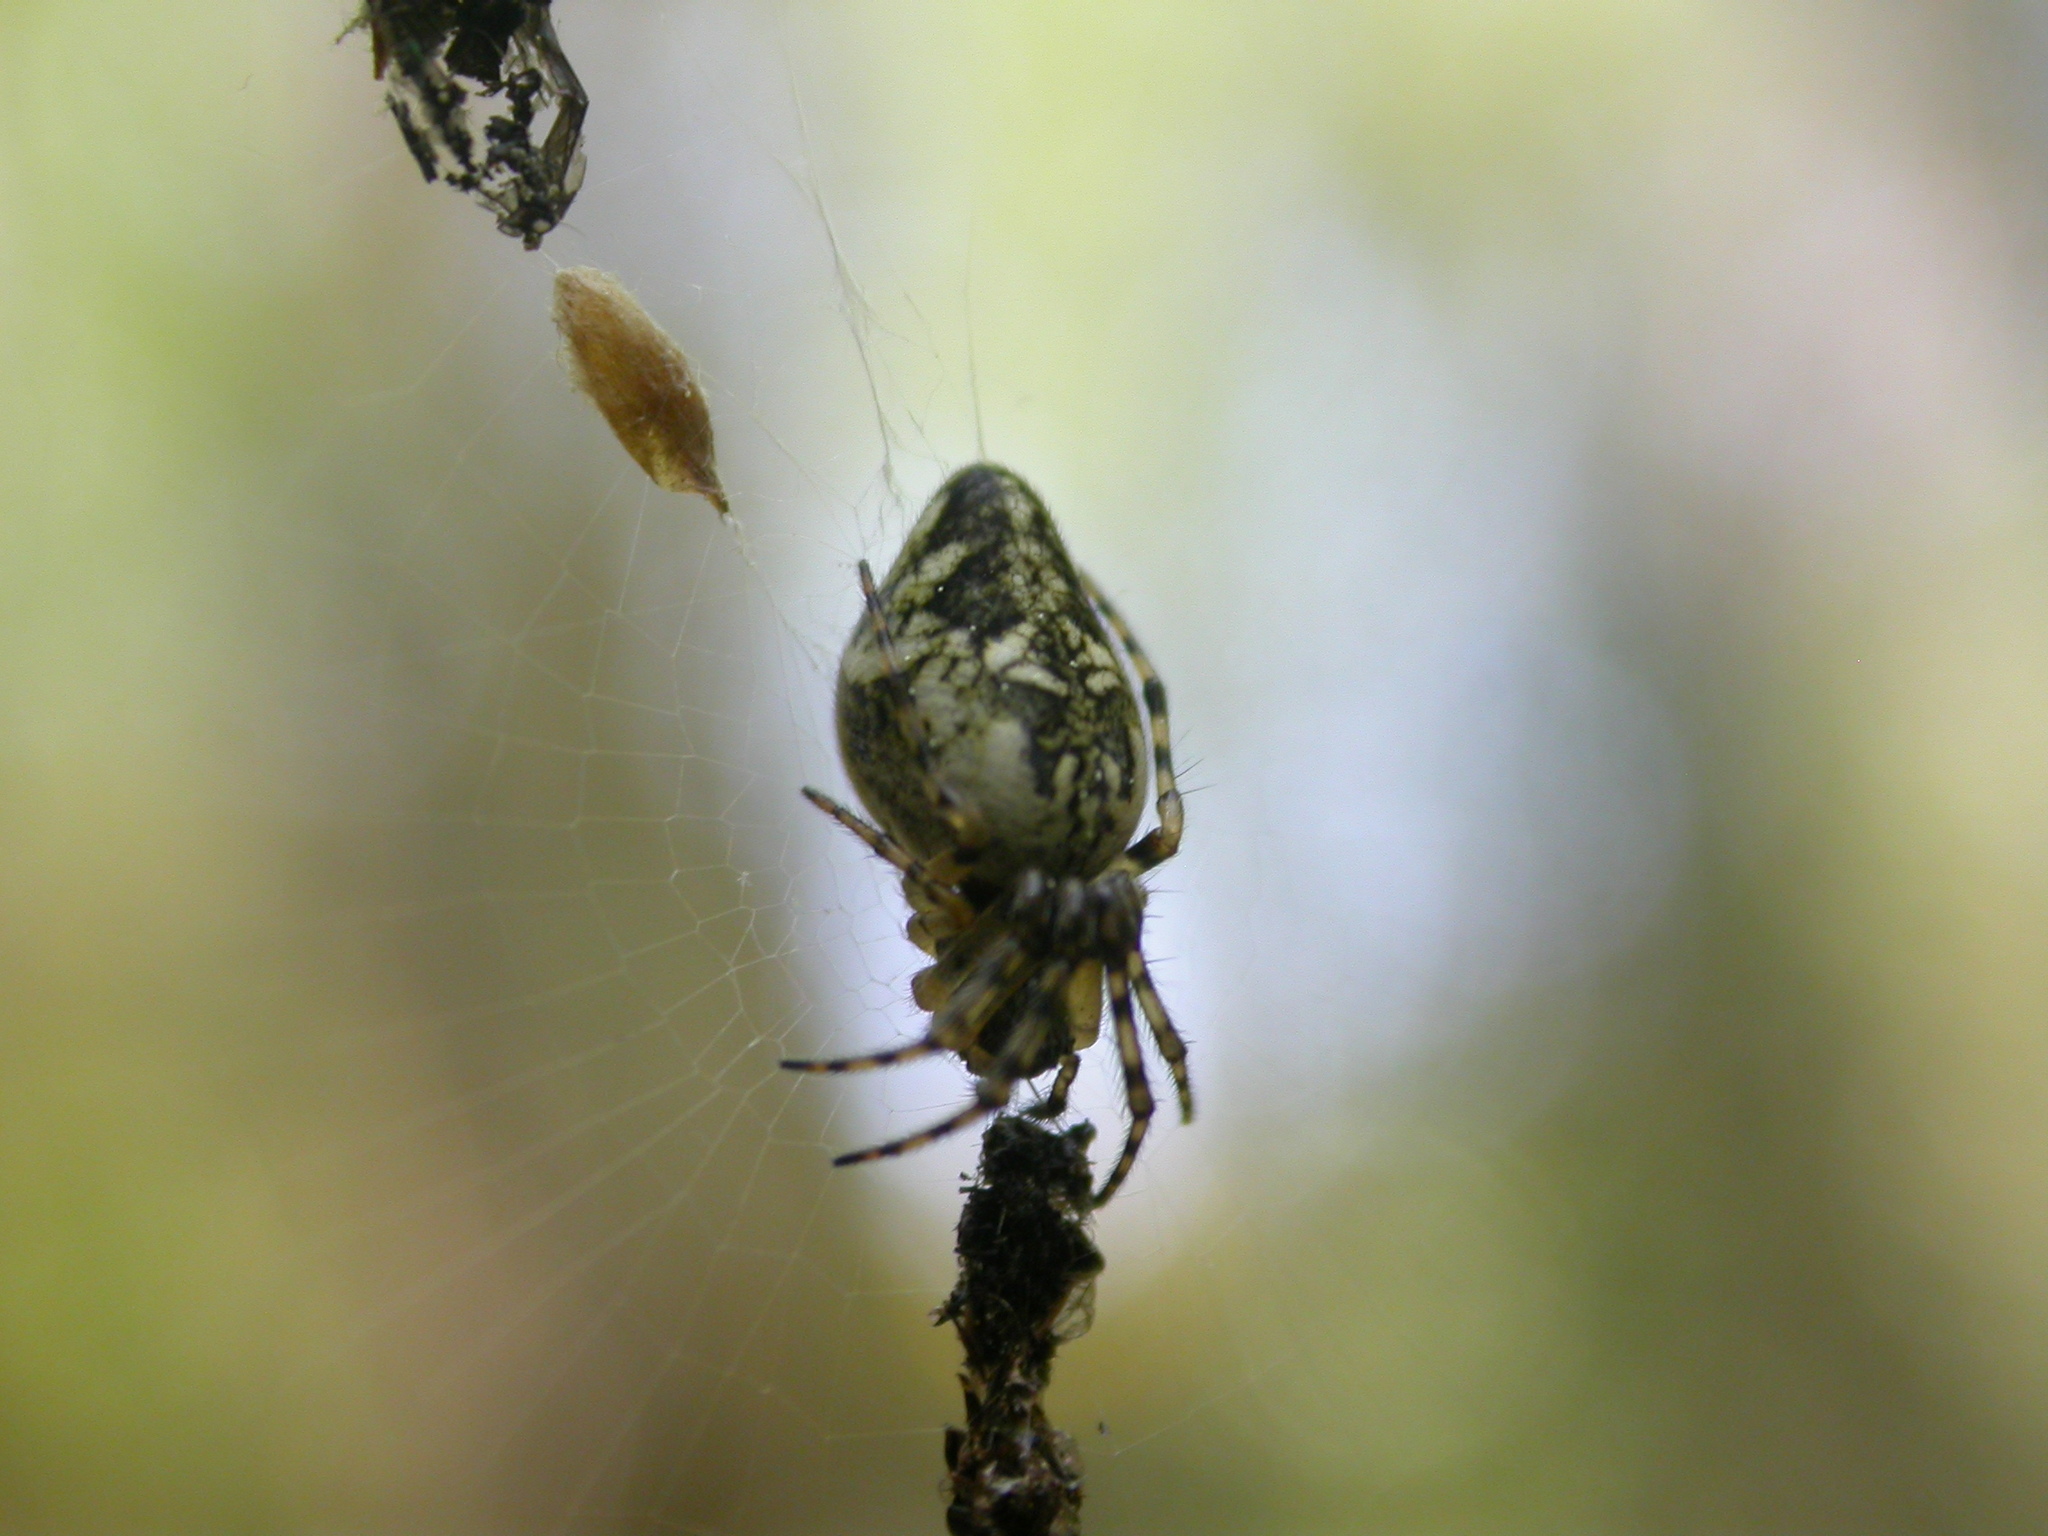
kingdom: Animalia
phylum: Arthropoda
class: Arachnida
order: Araneae
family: Araneidae
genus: Cyclosa
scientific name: Cyclosa conica
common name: Conical trashline orbweaver
